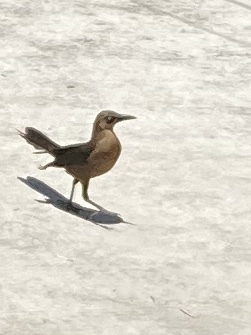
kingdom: Animalia
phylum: Chordata
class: Aves
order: Passeriformes
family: Icteridae
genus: Quiscalus
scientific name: Quiscalus mexicanus
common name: Great-tailed grackle
